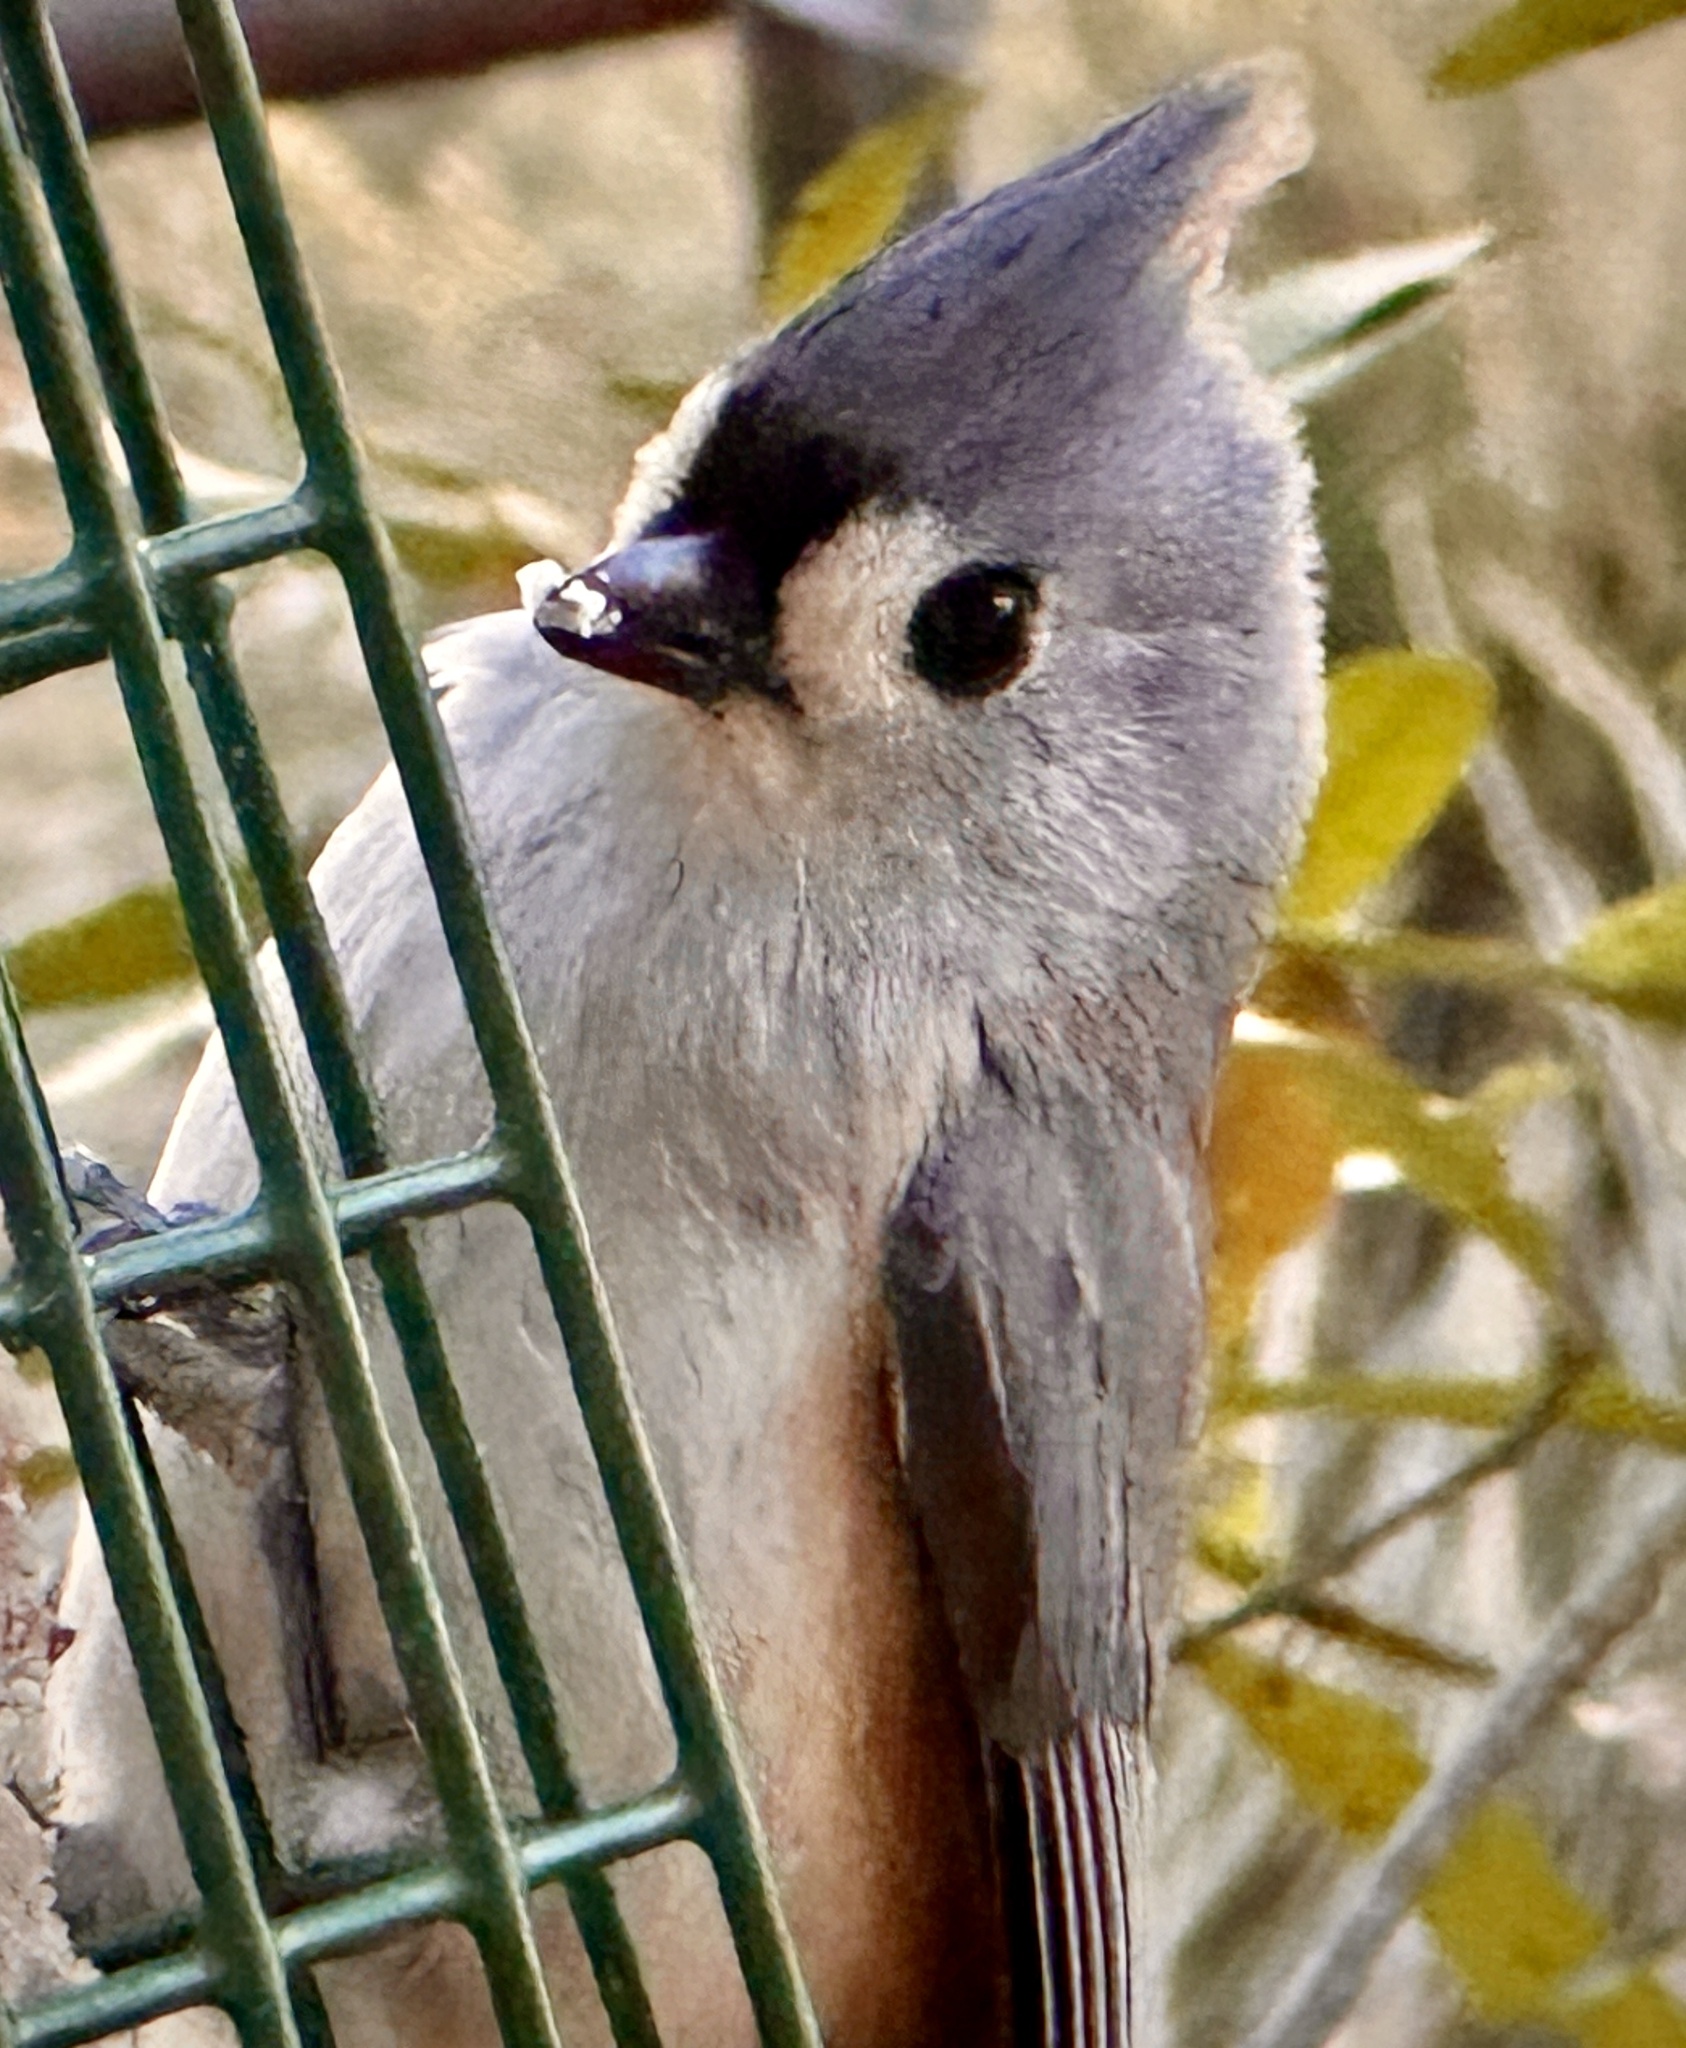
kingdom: Animalia
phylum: Chordata
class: Aves
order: Passeriformes
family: Paridae
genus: Baeolophus
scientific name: Baeolophus bicolor
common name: Tufted titmouse
